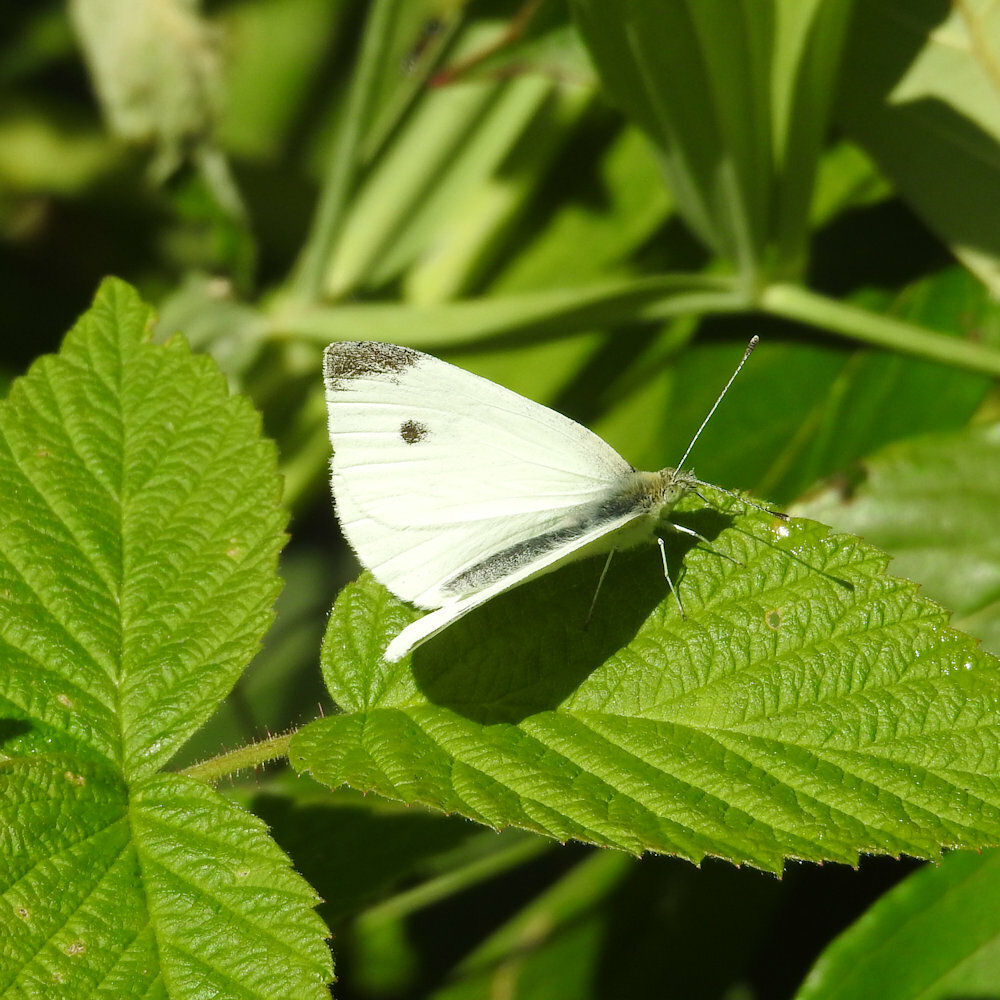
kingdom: Animalia
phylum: Arthropoda
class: Insecta
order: Lepidoptera
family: Pieridae
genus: Pieris
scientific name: Pieris rapae
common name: Small white
